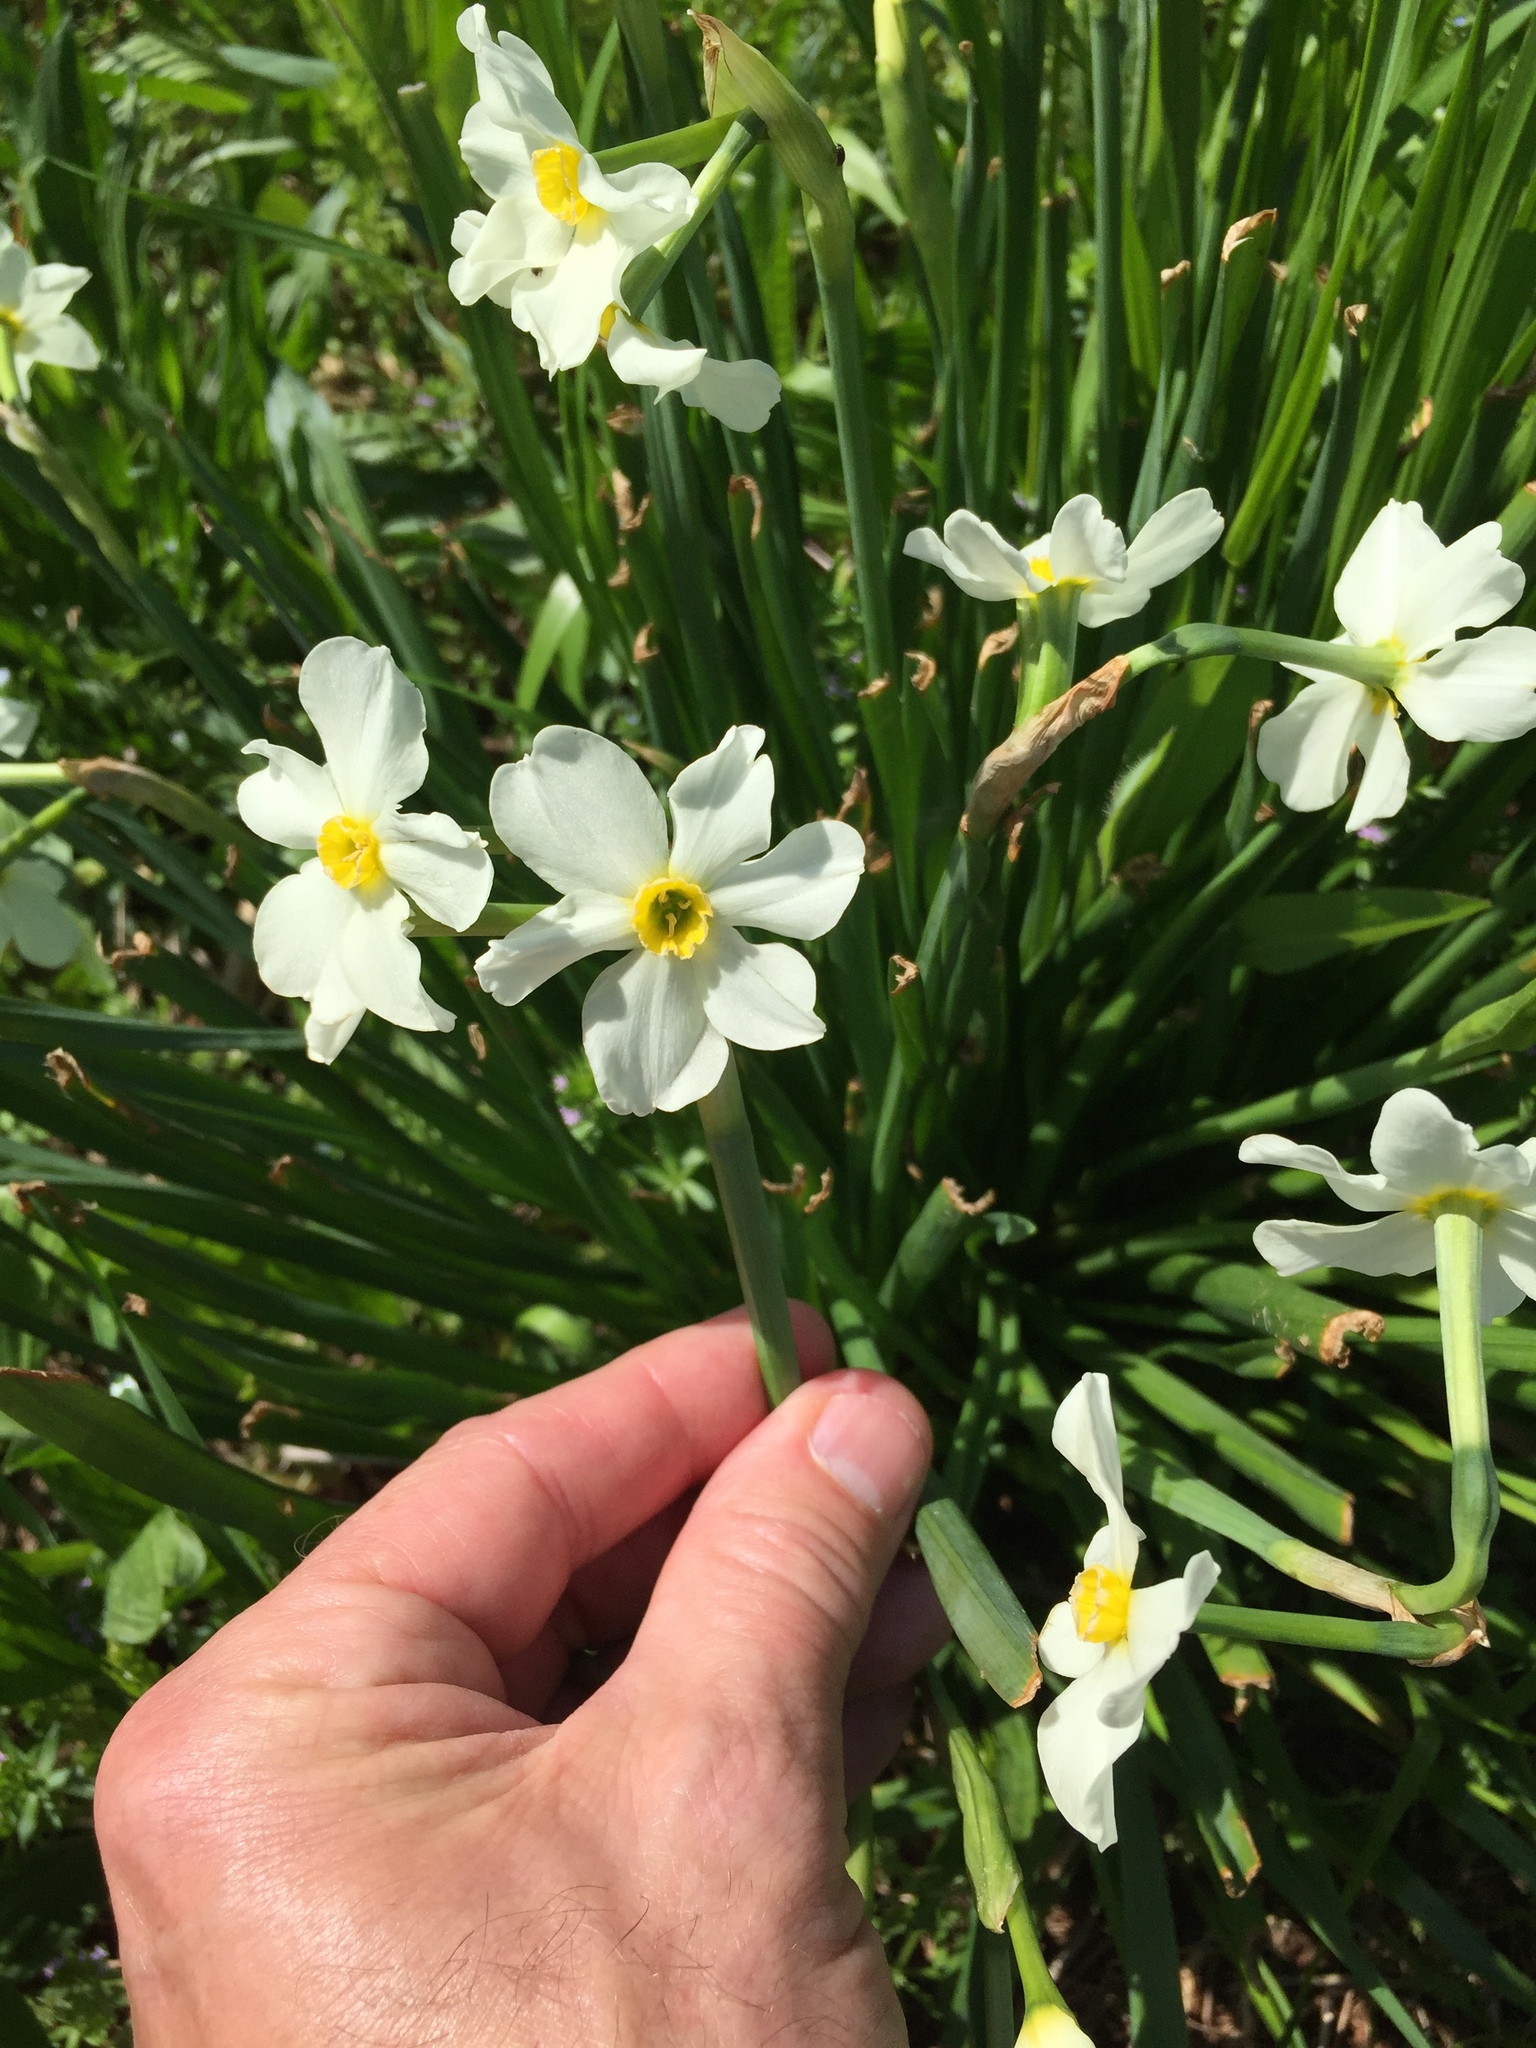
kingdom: Plantae
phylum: Tracheophyta
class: Liliopsida
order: Asparagales
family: Amaryllidaceae
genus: Narcissus
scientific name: Narcissus medioluteus
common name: Primrose-peerless
